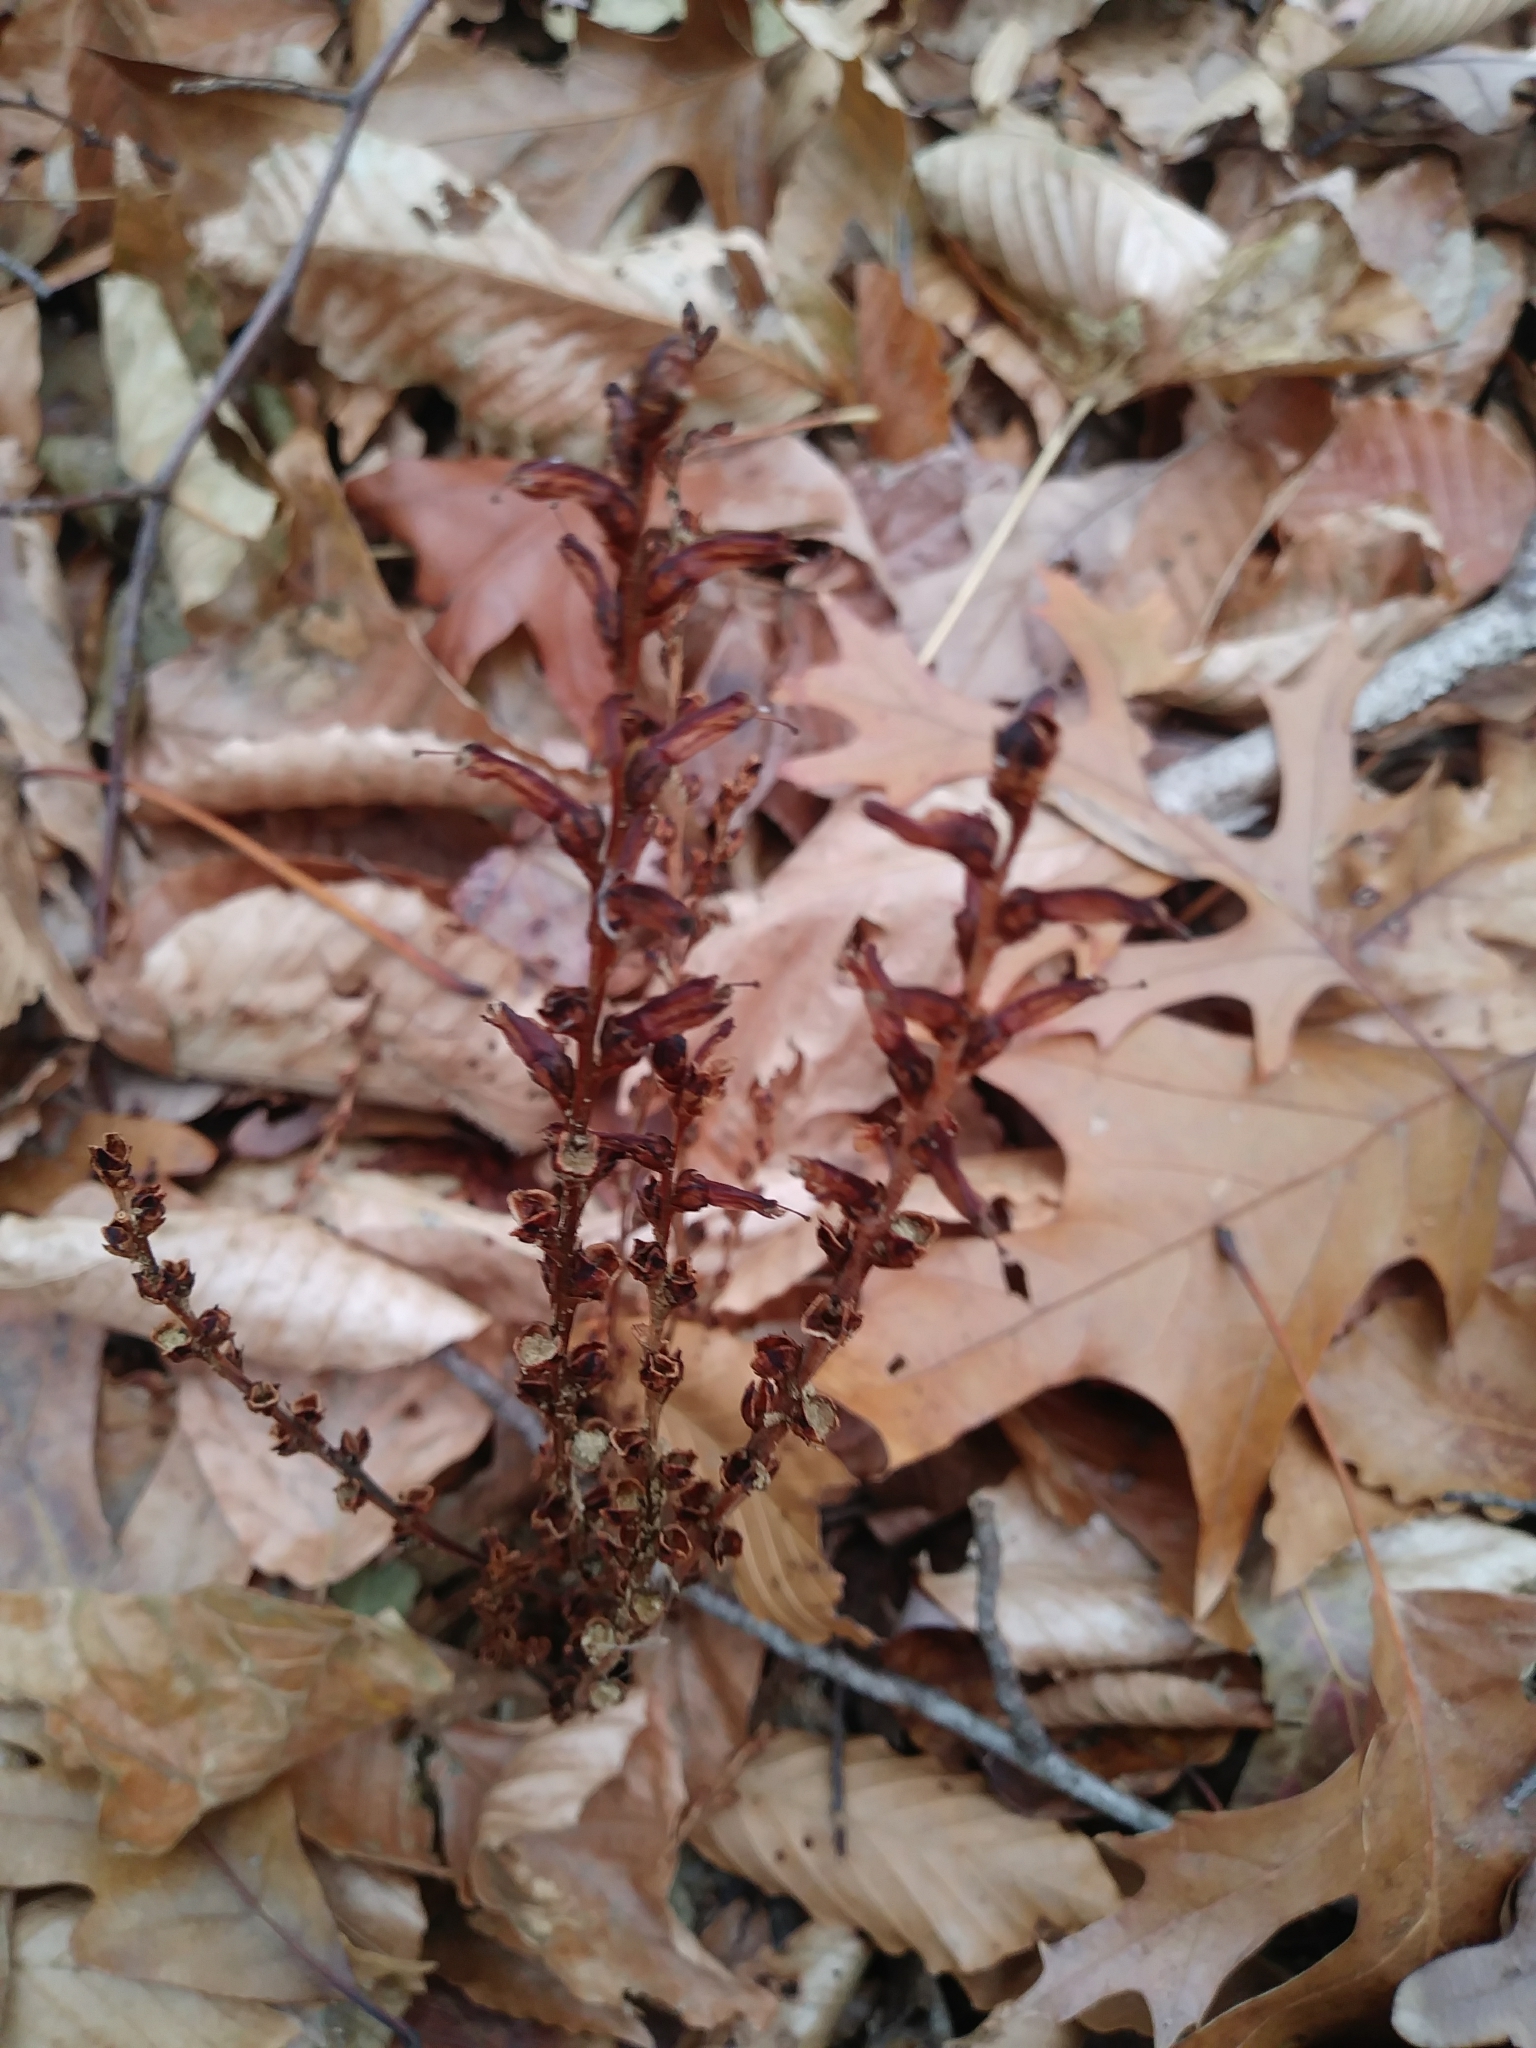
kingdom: Plantae
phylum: Tracheophyta
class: Magnoliopsida
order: Lamiales
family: Orobanchaceae
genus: Epifagus
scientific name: Epifagus virginiana
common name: Beechdrops
